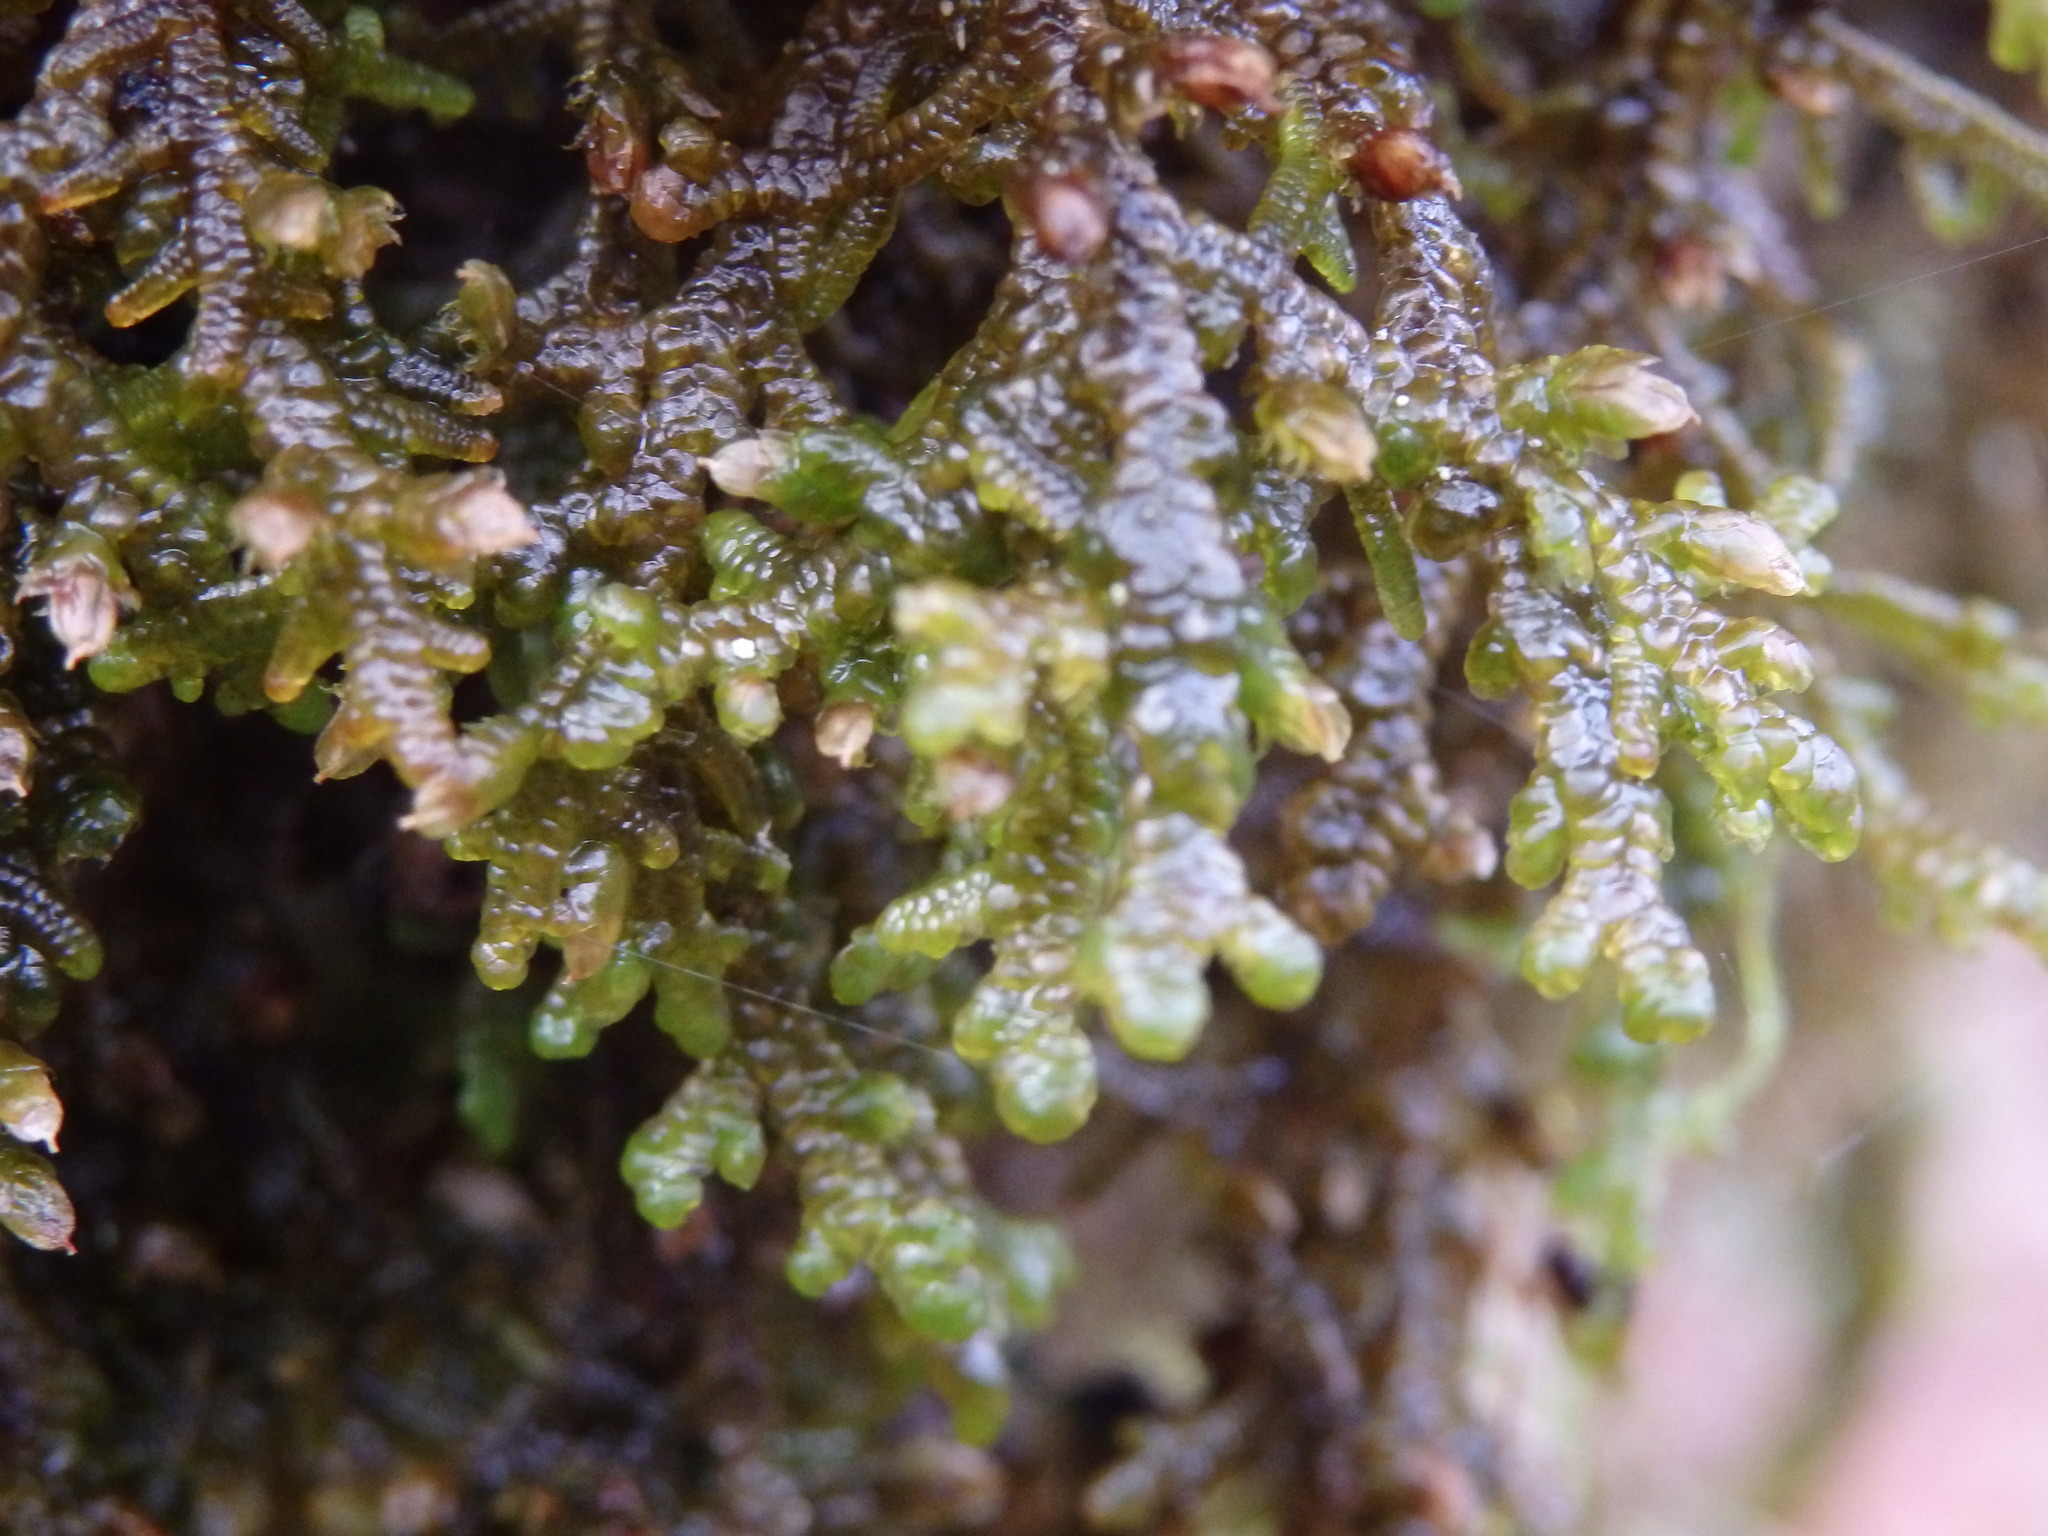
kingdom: Plantae
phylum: Marchantiophyta
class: Jungermanniopsida
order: Porellales
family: Porellaceae
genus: Porella
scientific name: Porella platyphylla
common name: Wall scalewort
